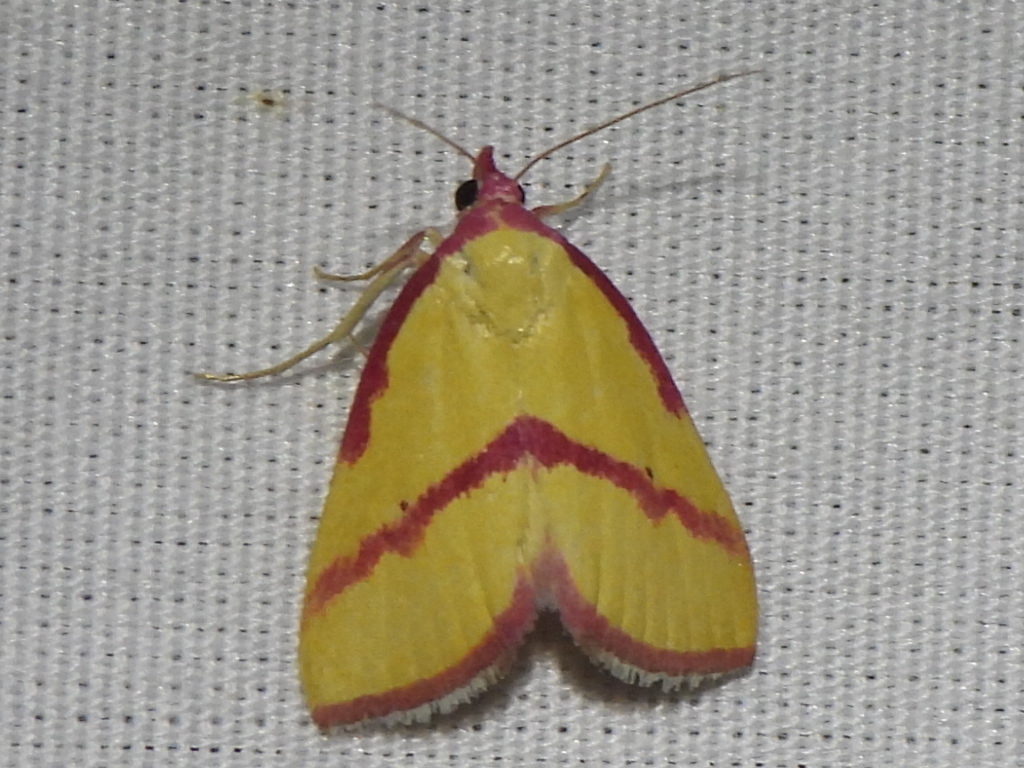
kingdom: Animalia
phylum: Arthropoda
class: Insecta
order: Lepidoptera
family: Erebidae
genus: Phytometra
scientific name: Phytometra ernestinana
